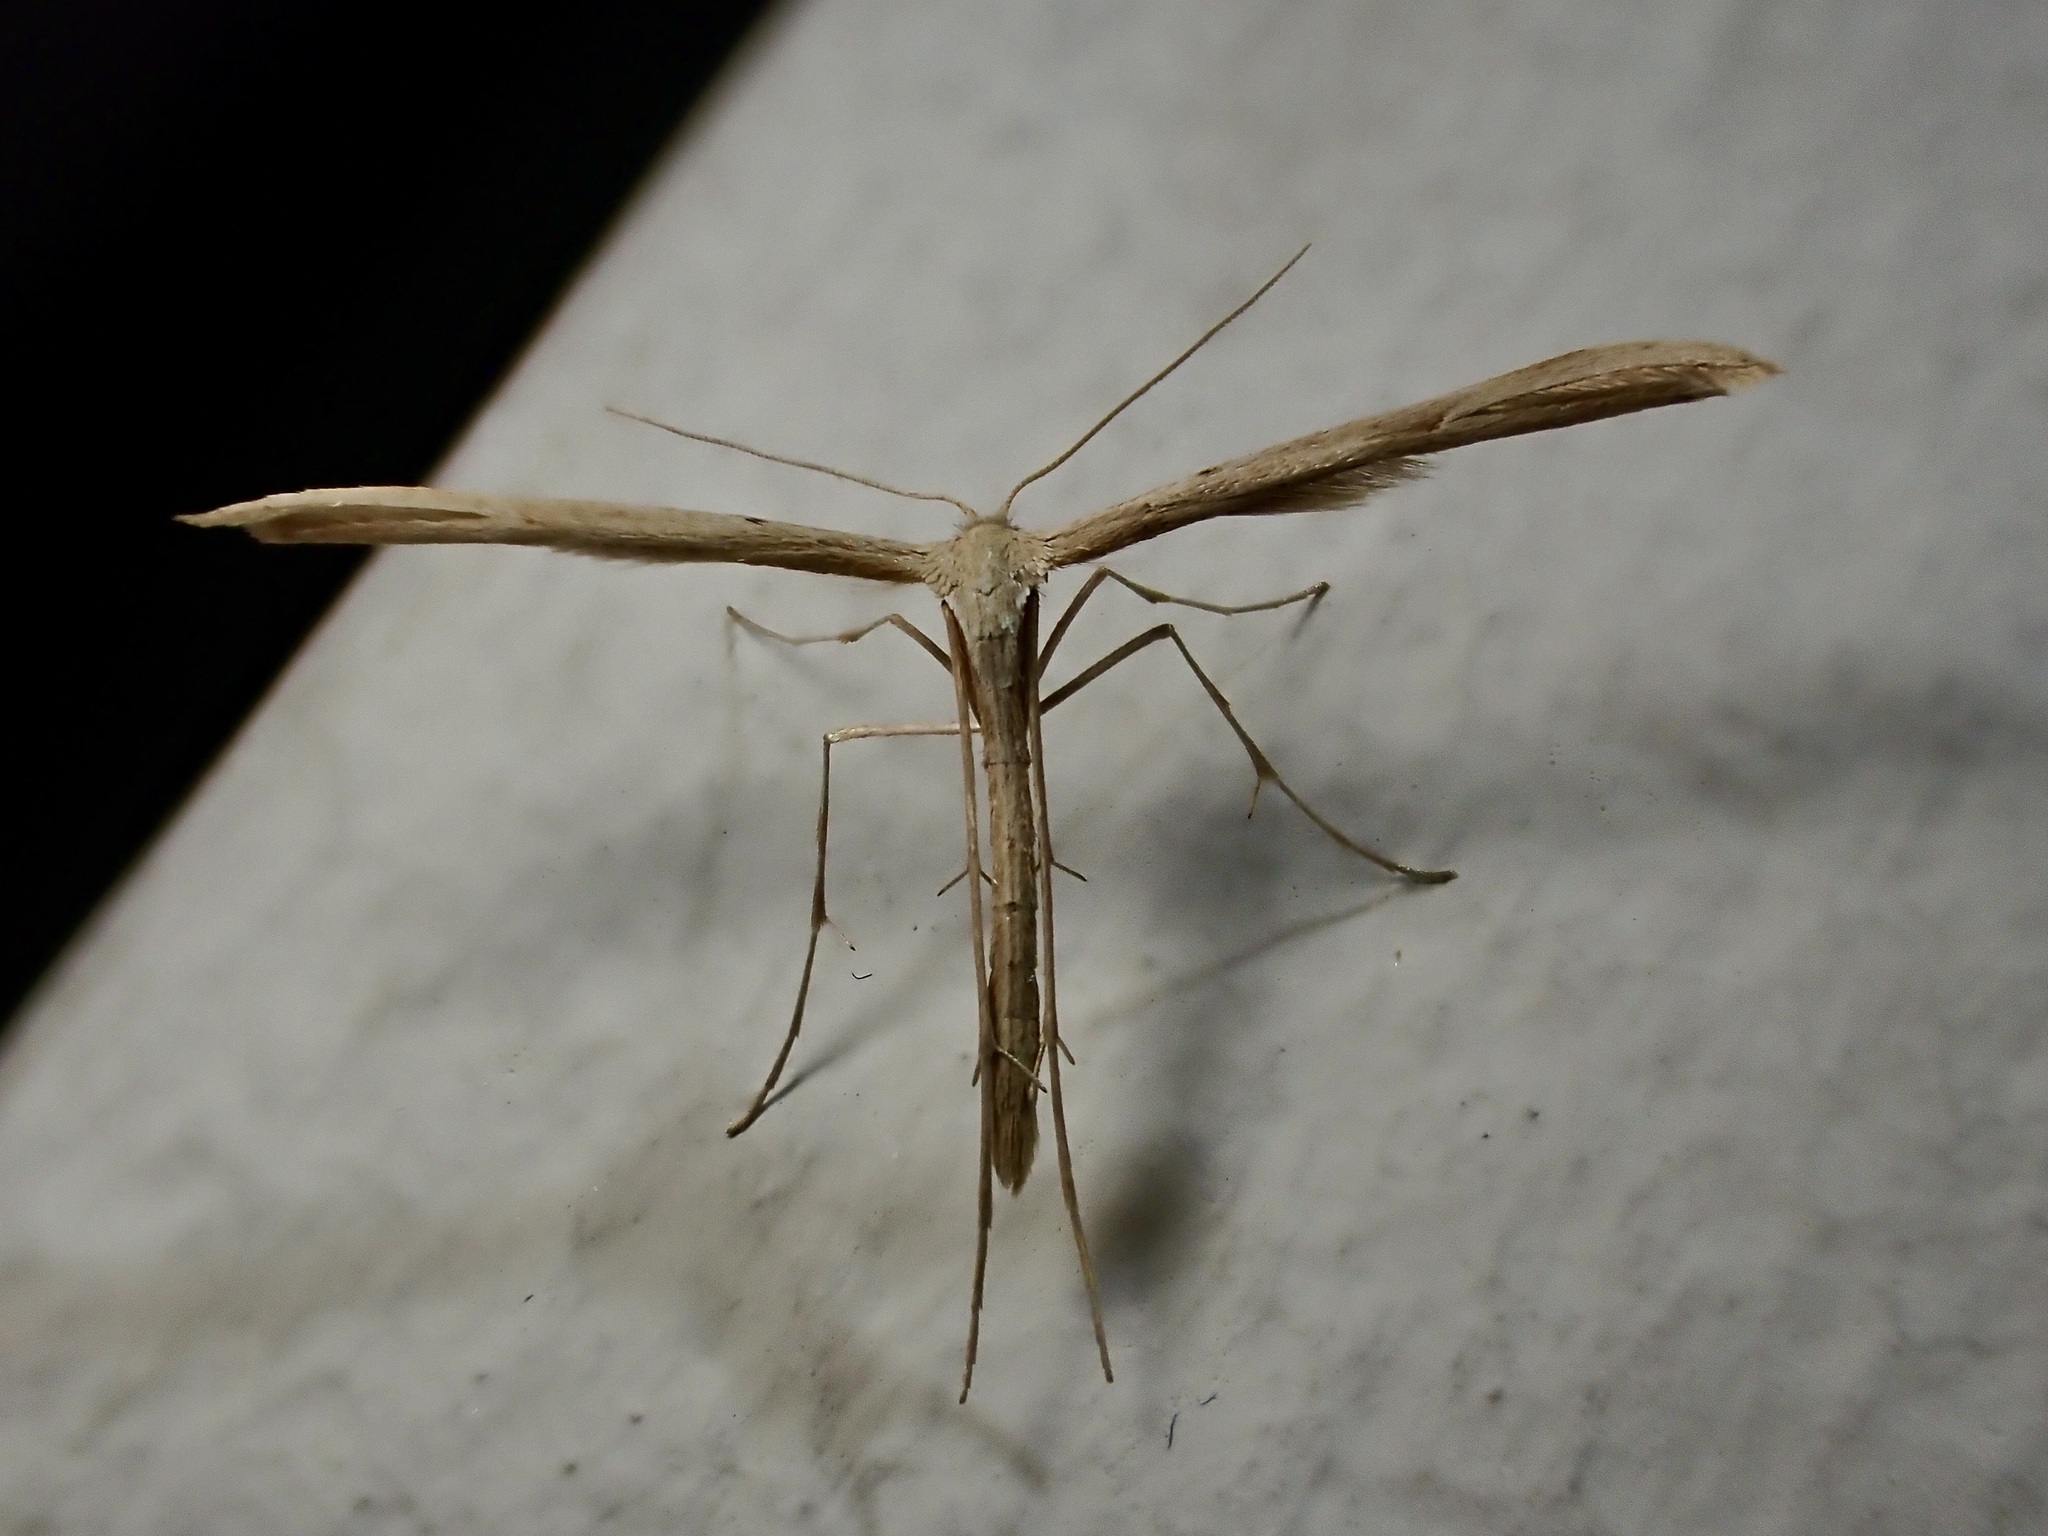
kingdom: Animalia
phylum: Arthropoda
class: Insecta
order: Lepidoptera
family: Pterophoridae
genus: Emmelina
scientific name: Emmelina monodactyla
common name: Common plume
